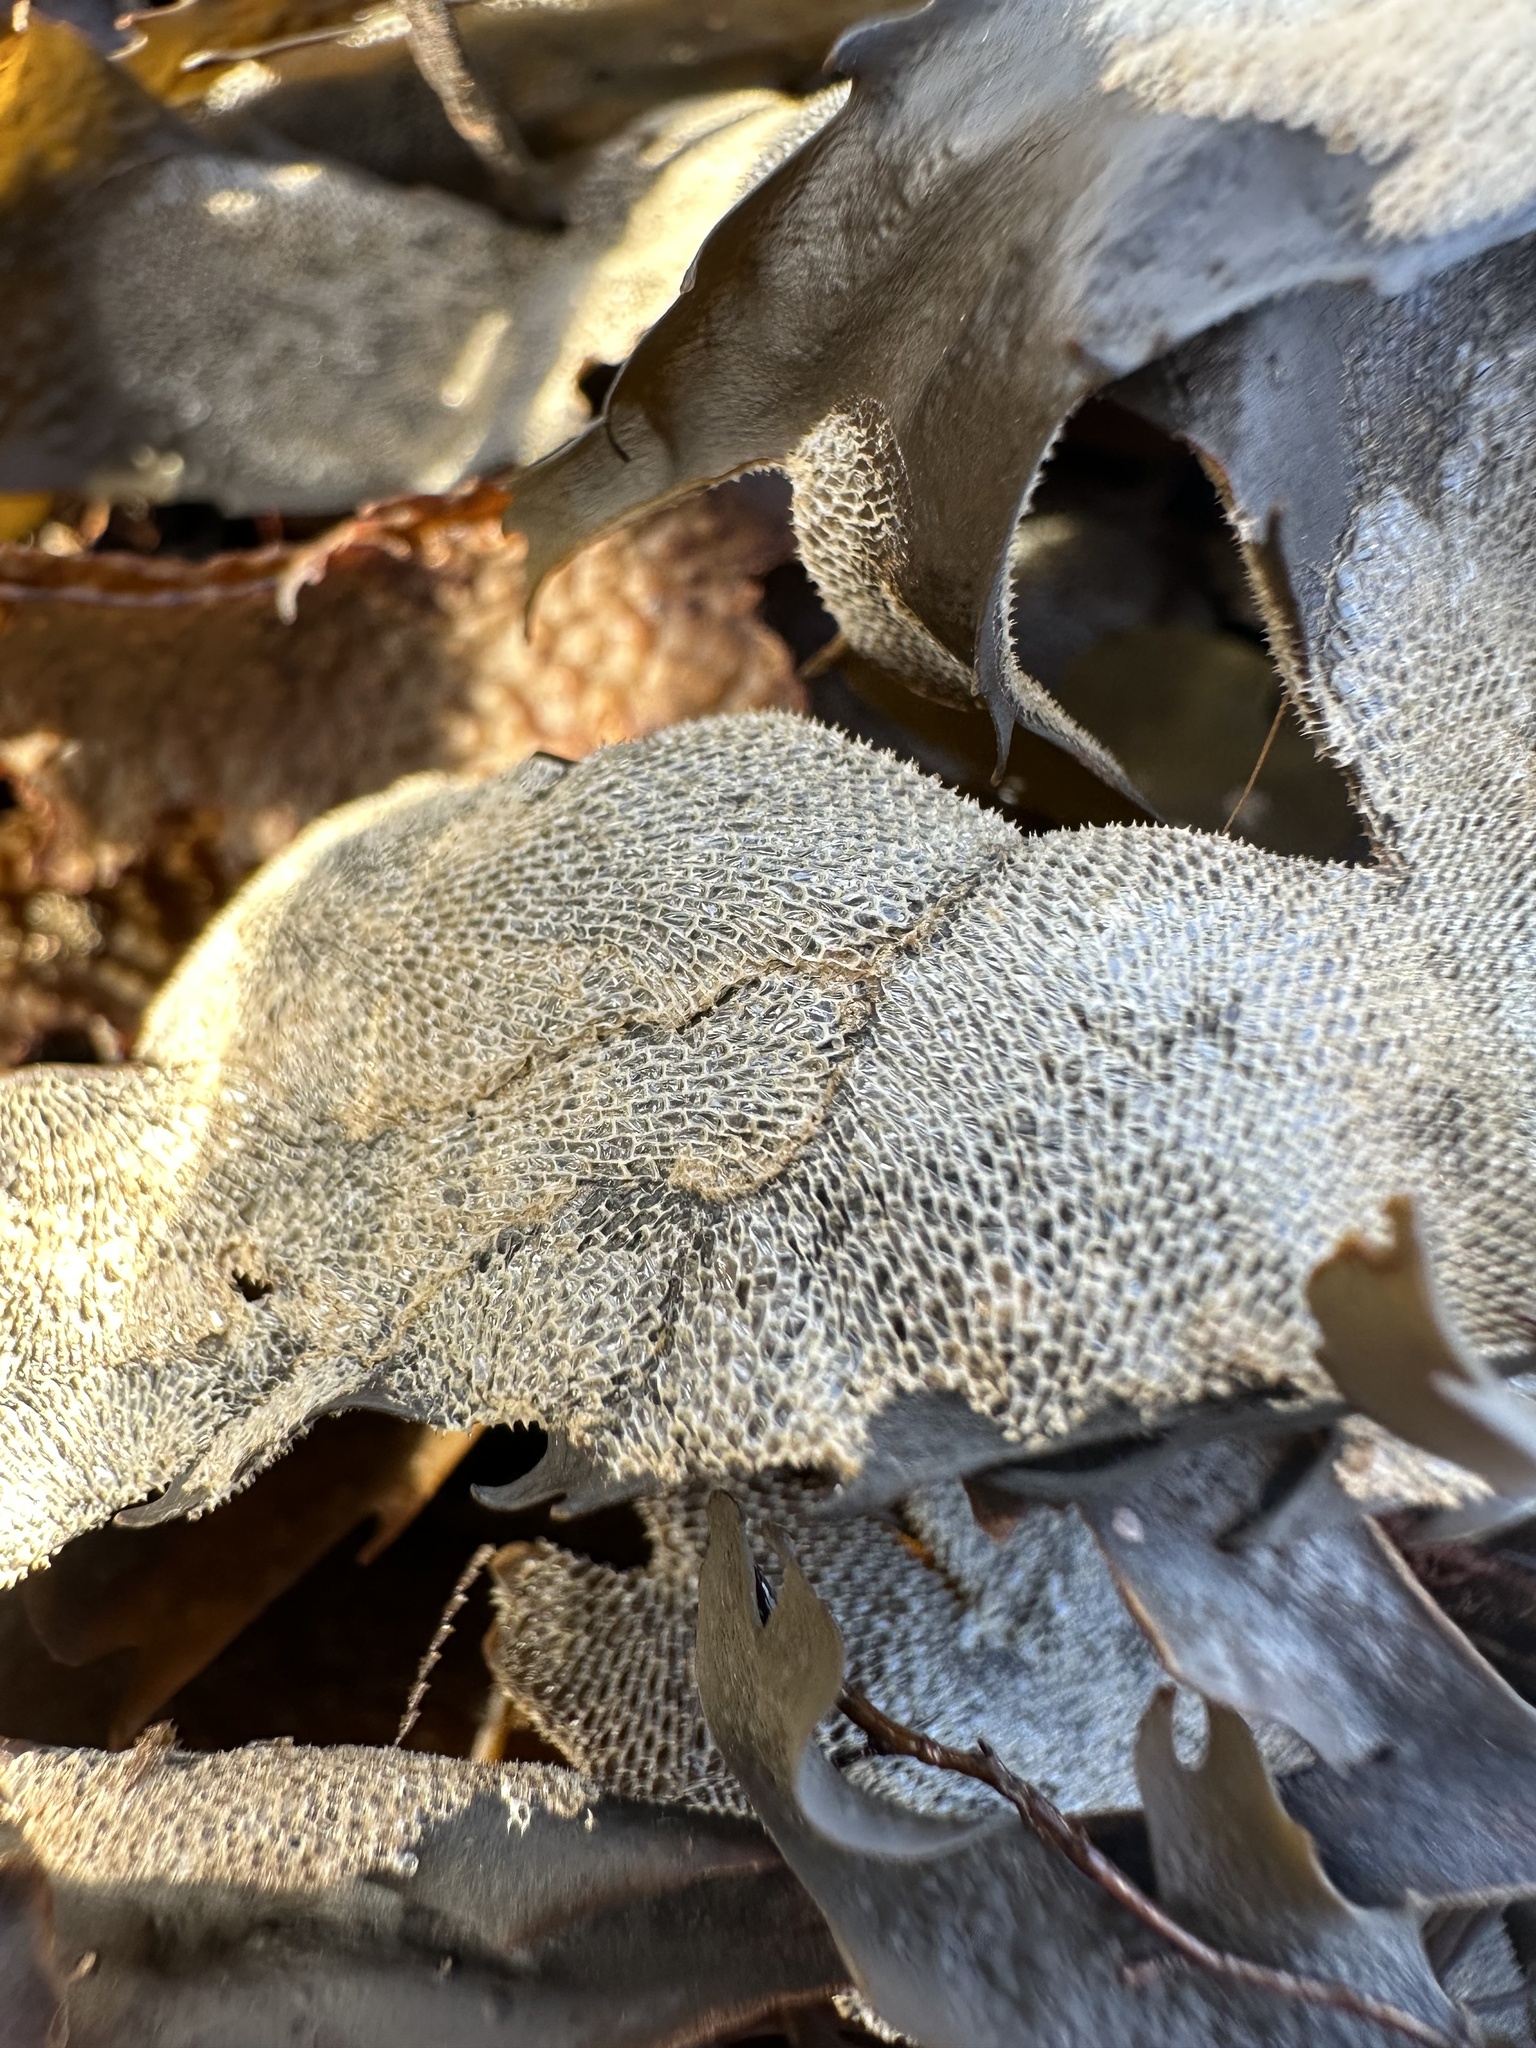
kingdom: Animalia
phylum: Bryozoa
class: Gymnolaemata
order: Cheilostomatida
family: Membraniporidae
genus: Membranipora
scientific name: Membranipora membranacea
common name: Sea mat
